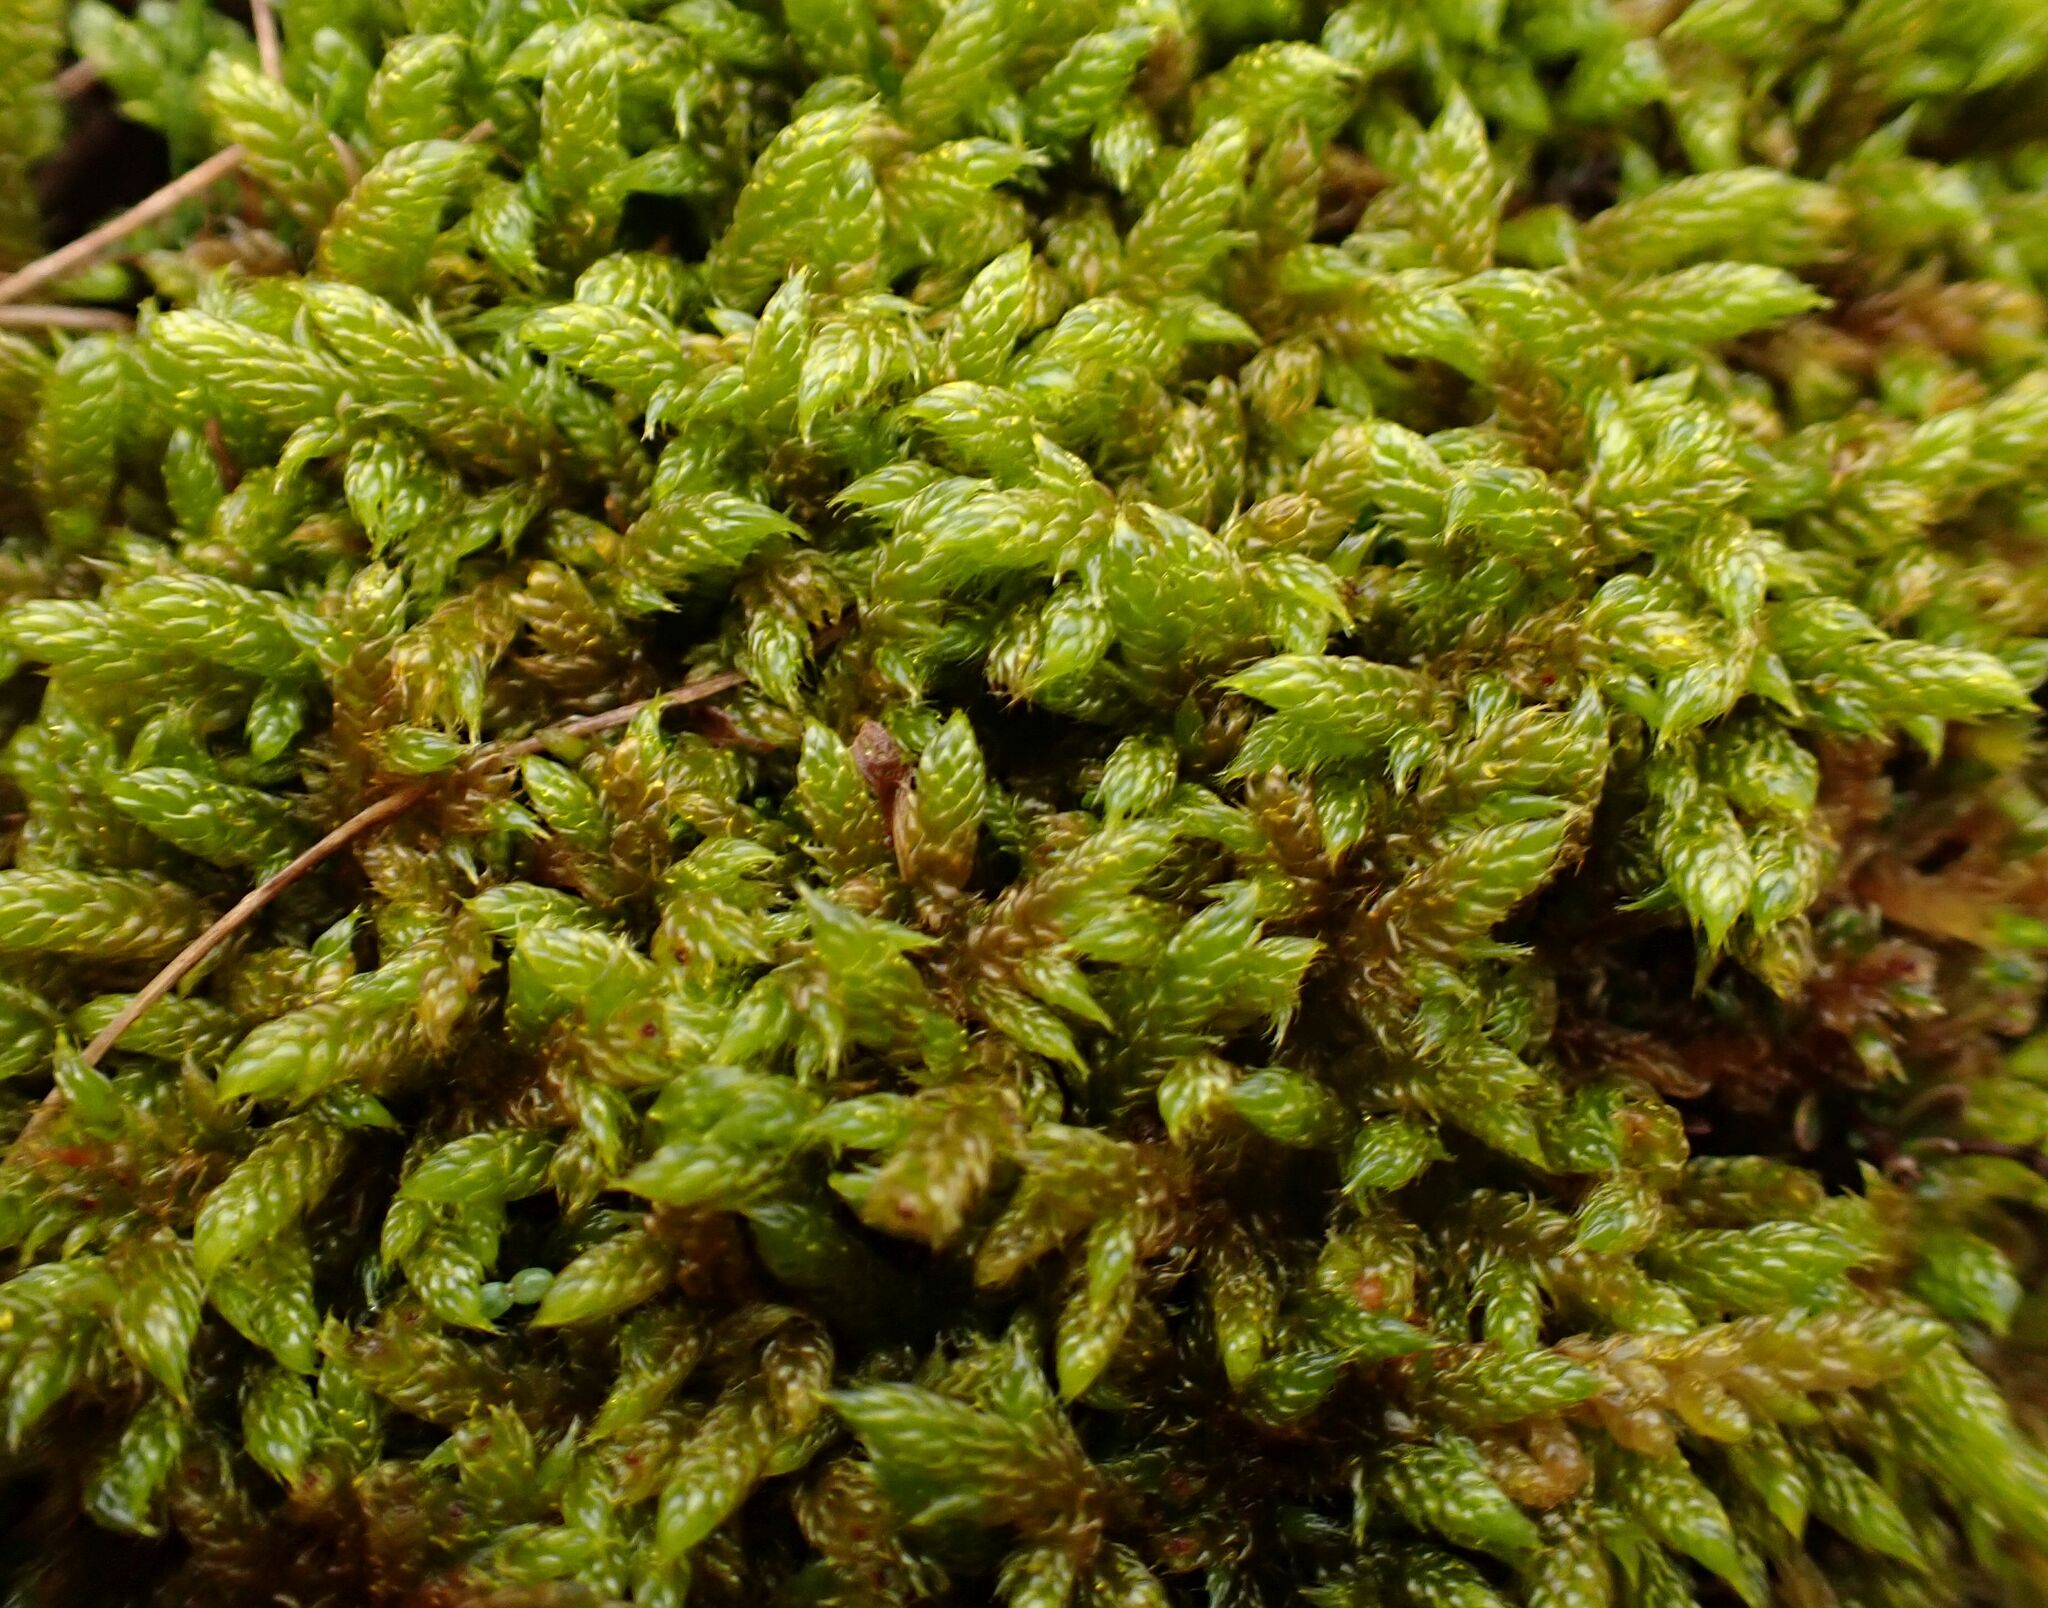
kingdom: Plantae
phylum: Bryophyta
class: Bryopsida
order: Hypnales
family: Hypnaceae
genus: Hypnum
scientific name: Hypnum cupressiforme
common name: Cypress-leaved plait-moss
